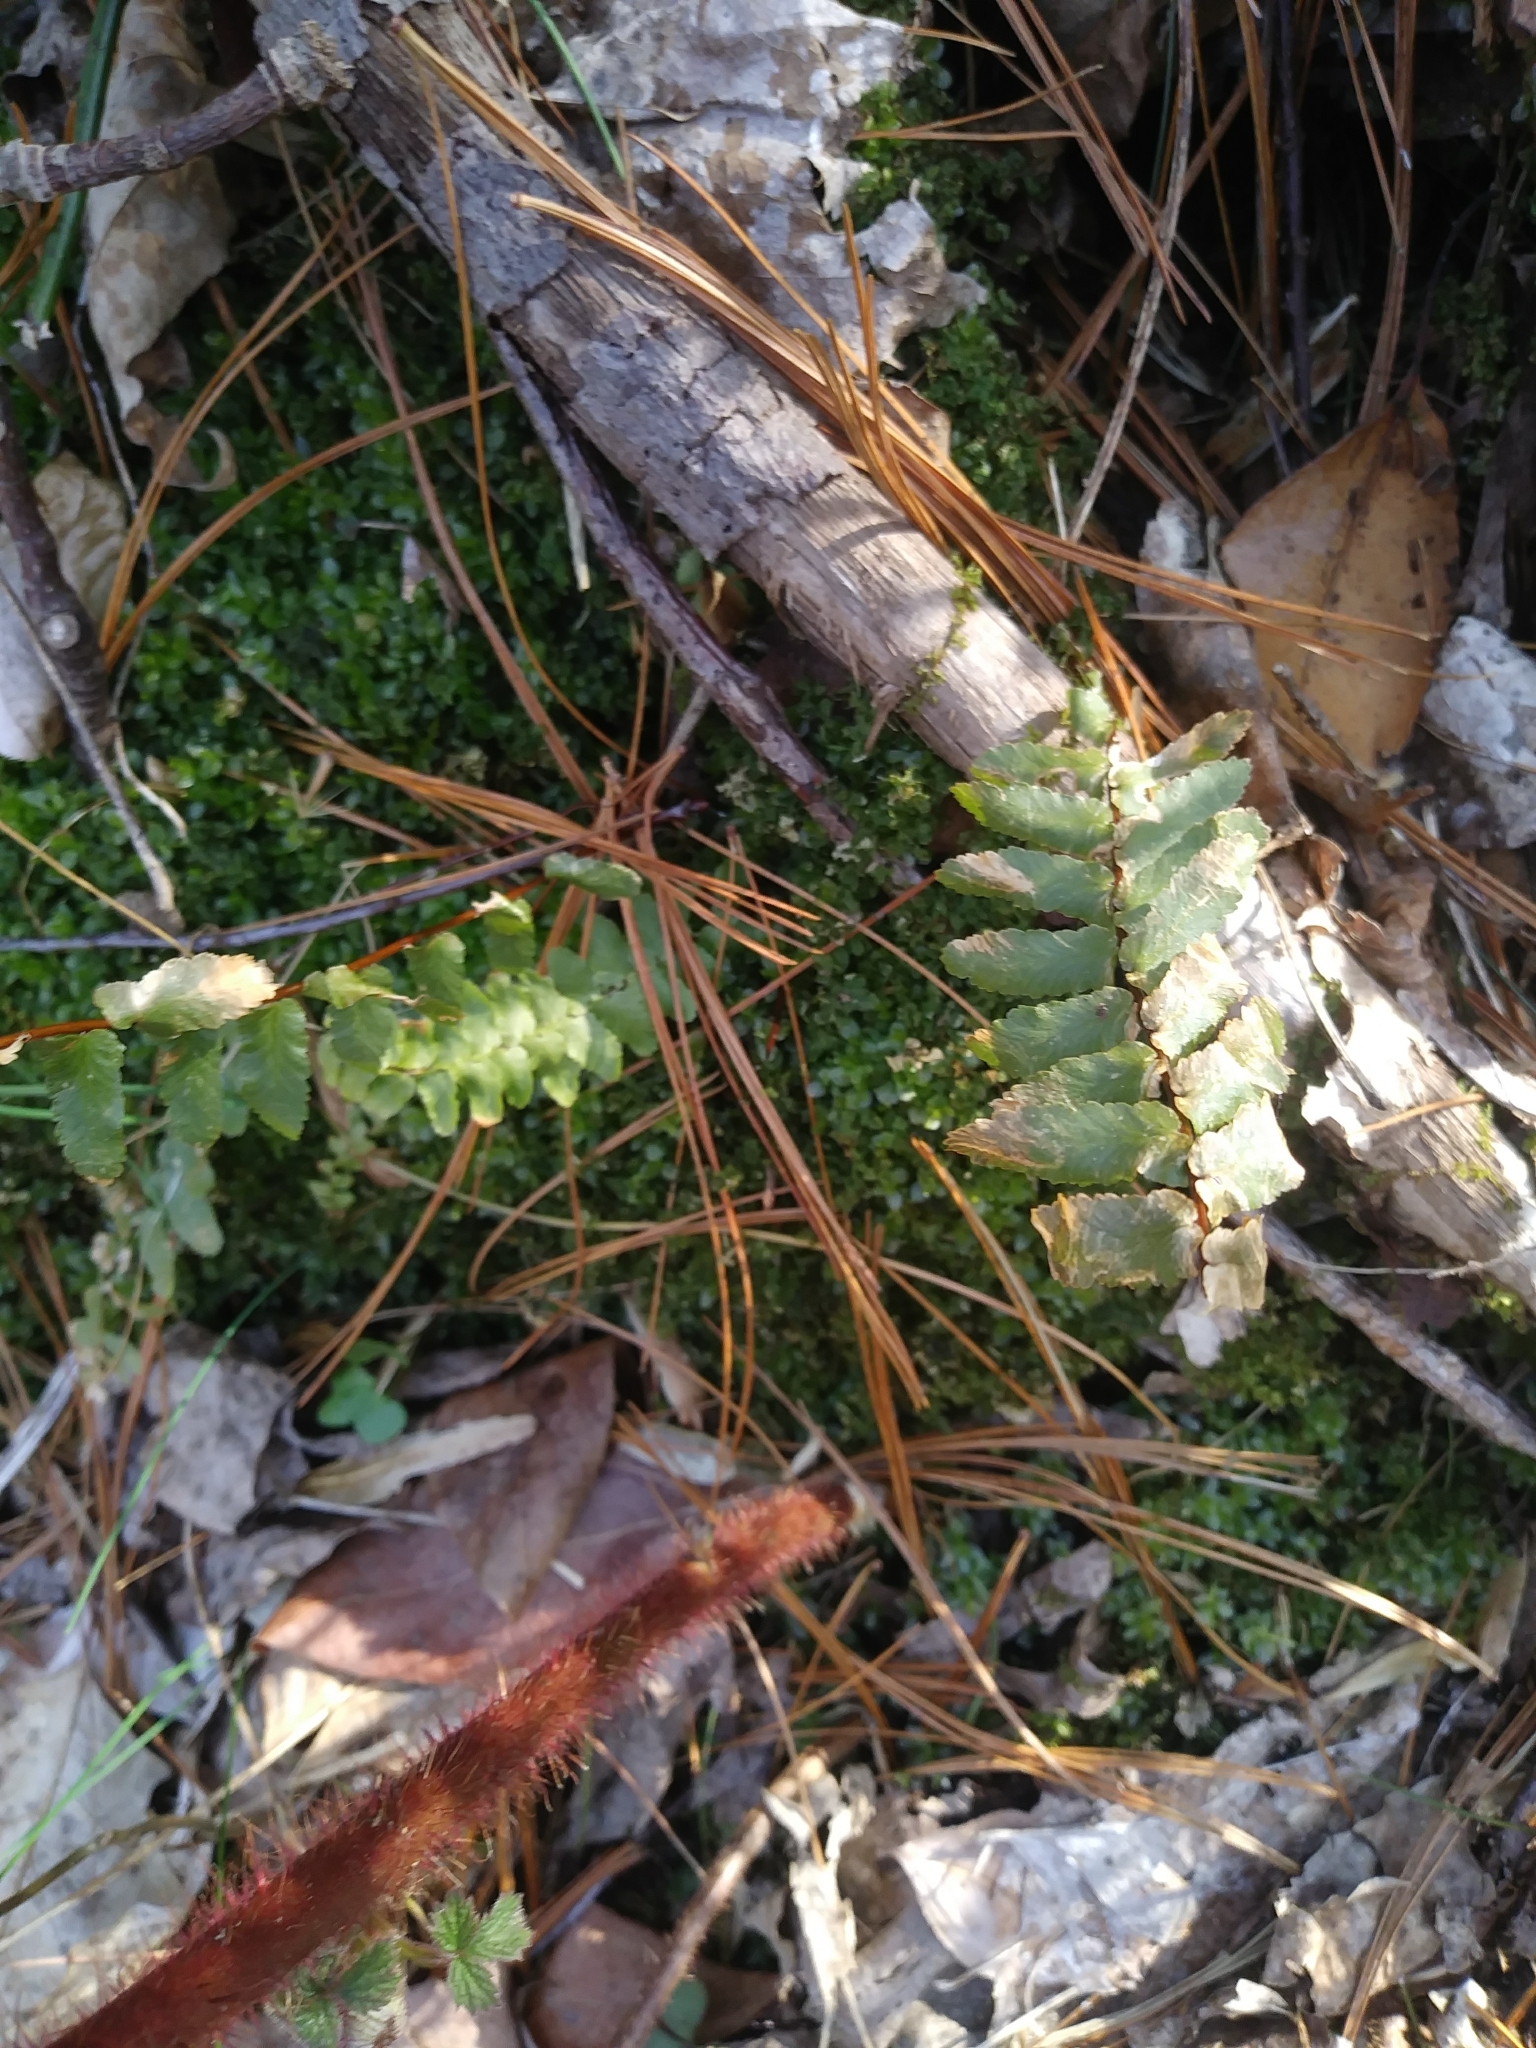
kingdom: Plantae
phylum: Tracheophyta
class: Polypodiopsida
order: Polypodiales
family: Aspleniaceae
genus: Asplenium
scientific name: Asplenium platyneuron
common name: Ebony spleenwort
